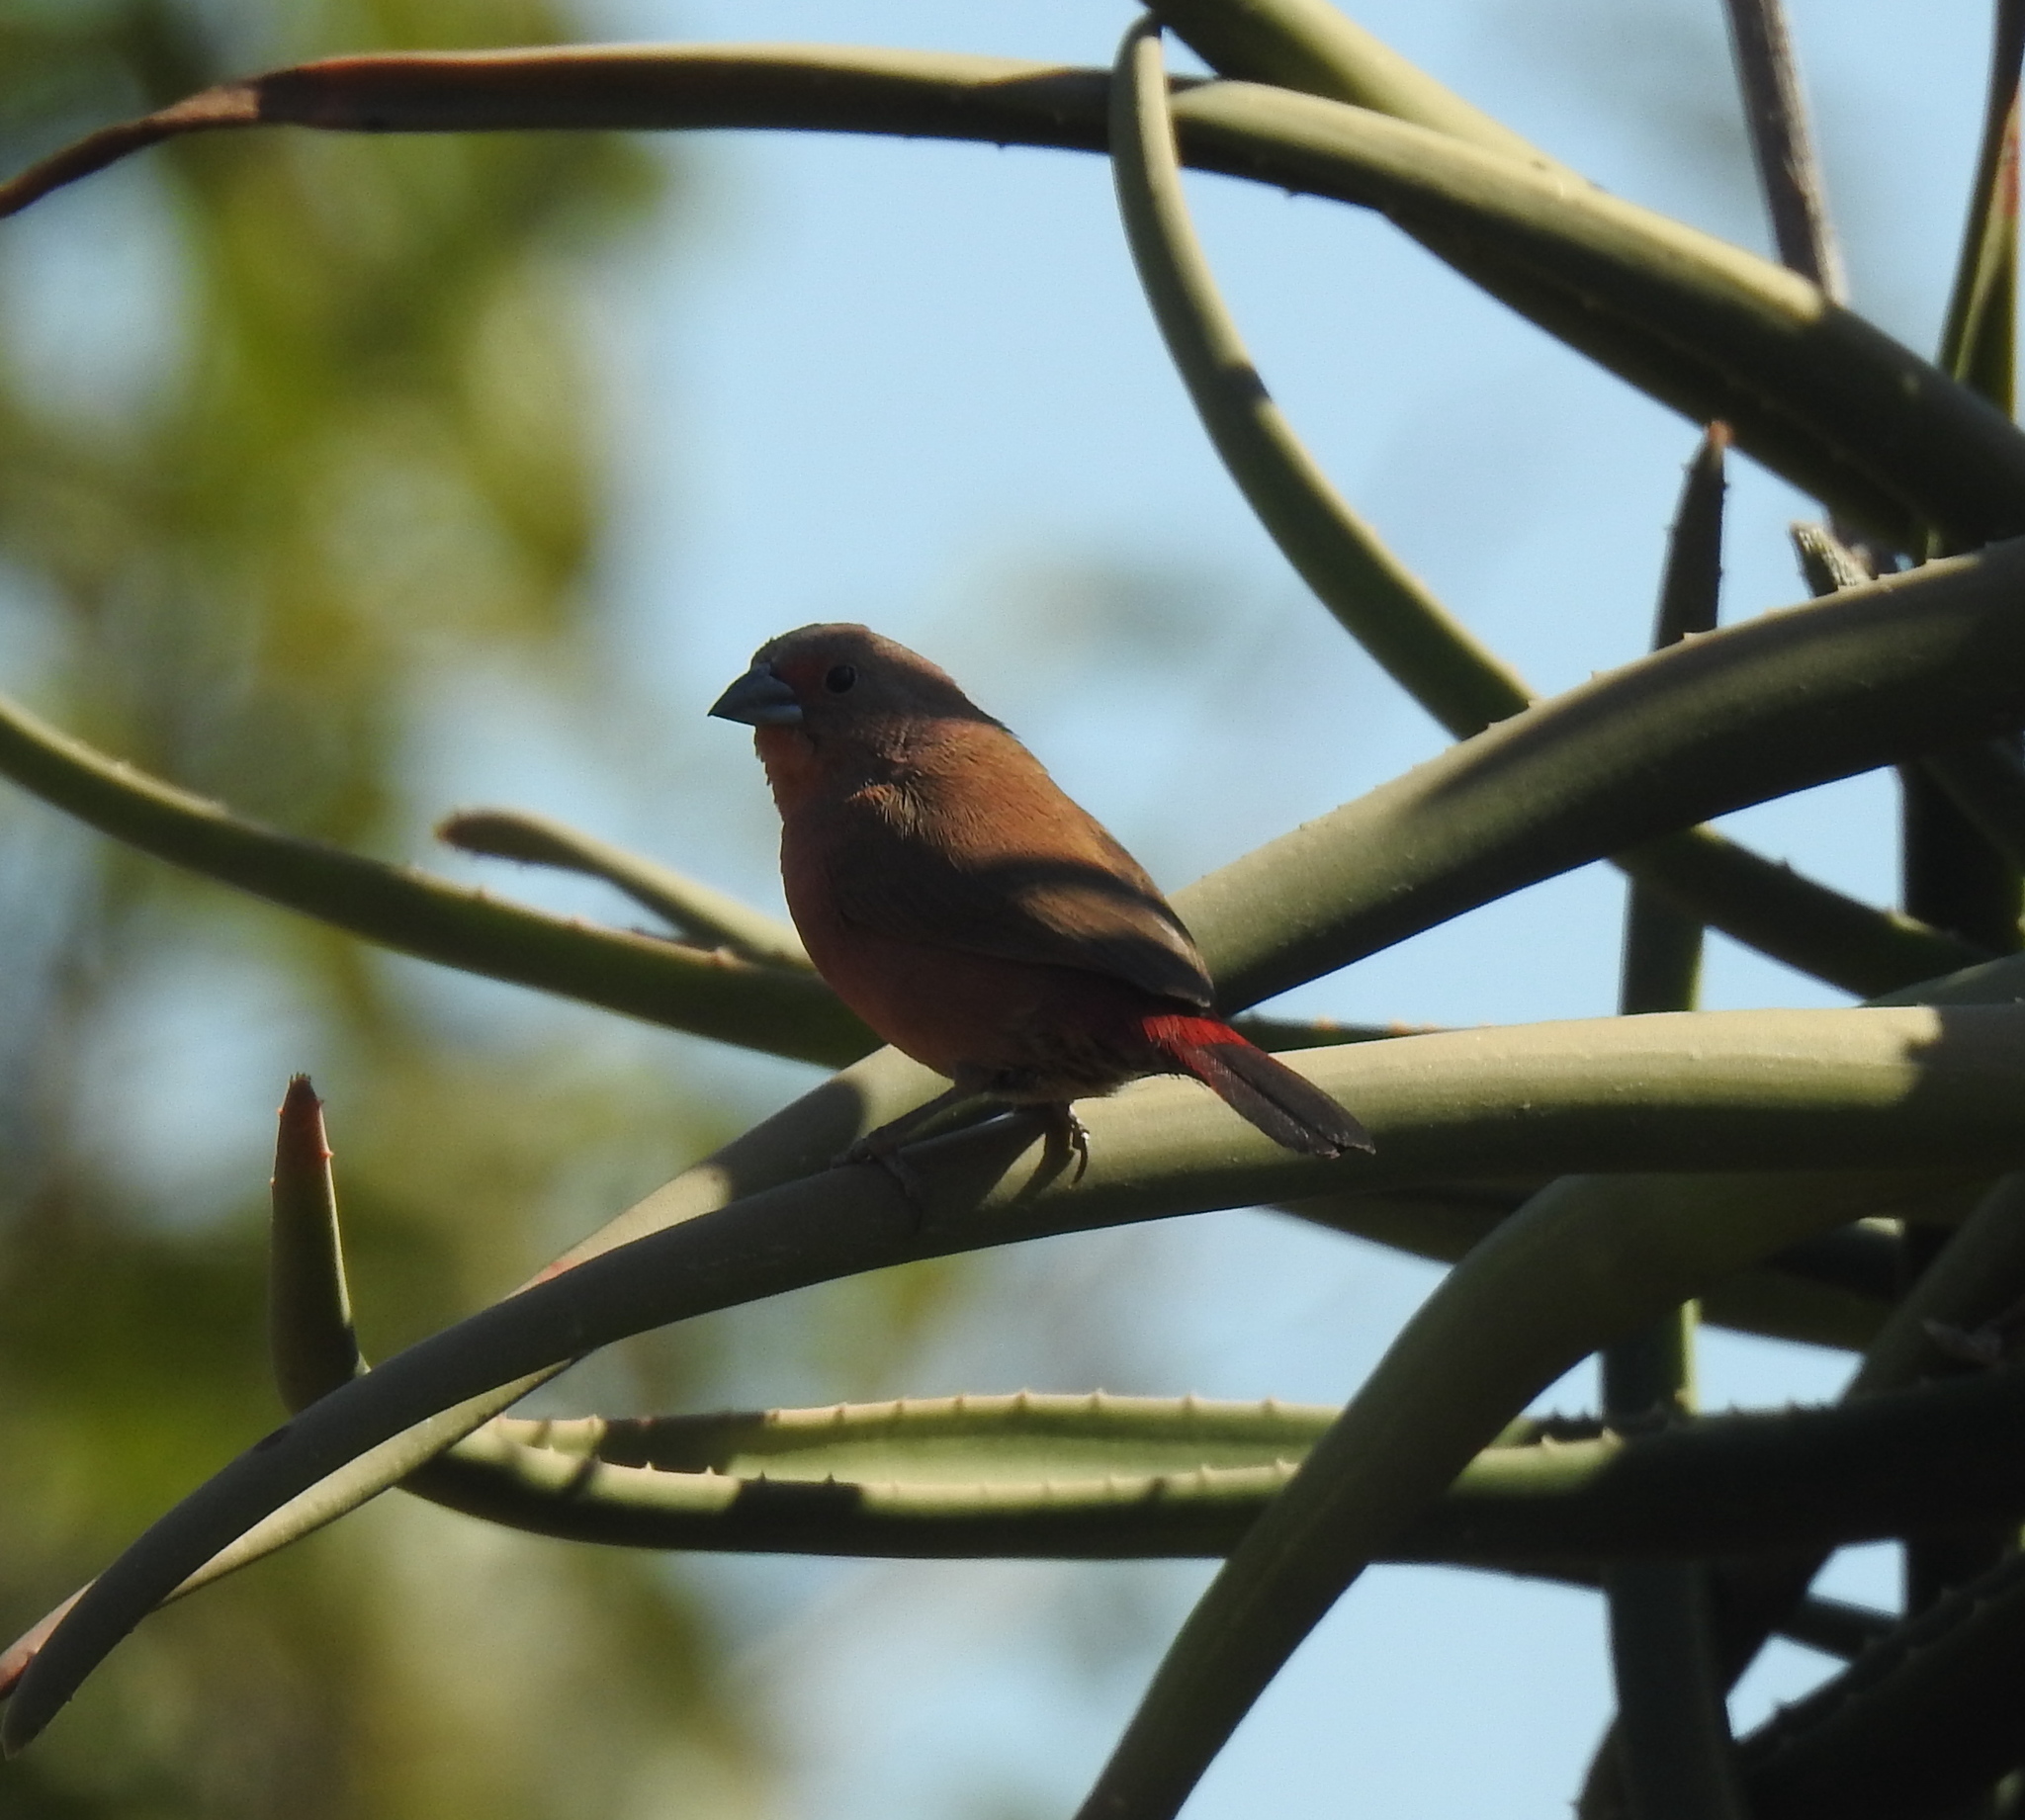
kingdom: Animalia
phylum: Chordata
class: Aves
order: Passeriformes
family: Estrildidae
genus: Lagonosticta
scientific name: Lagonosticta rhodopareia
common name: Jameson's firefinch
